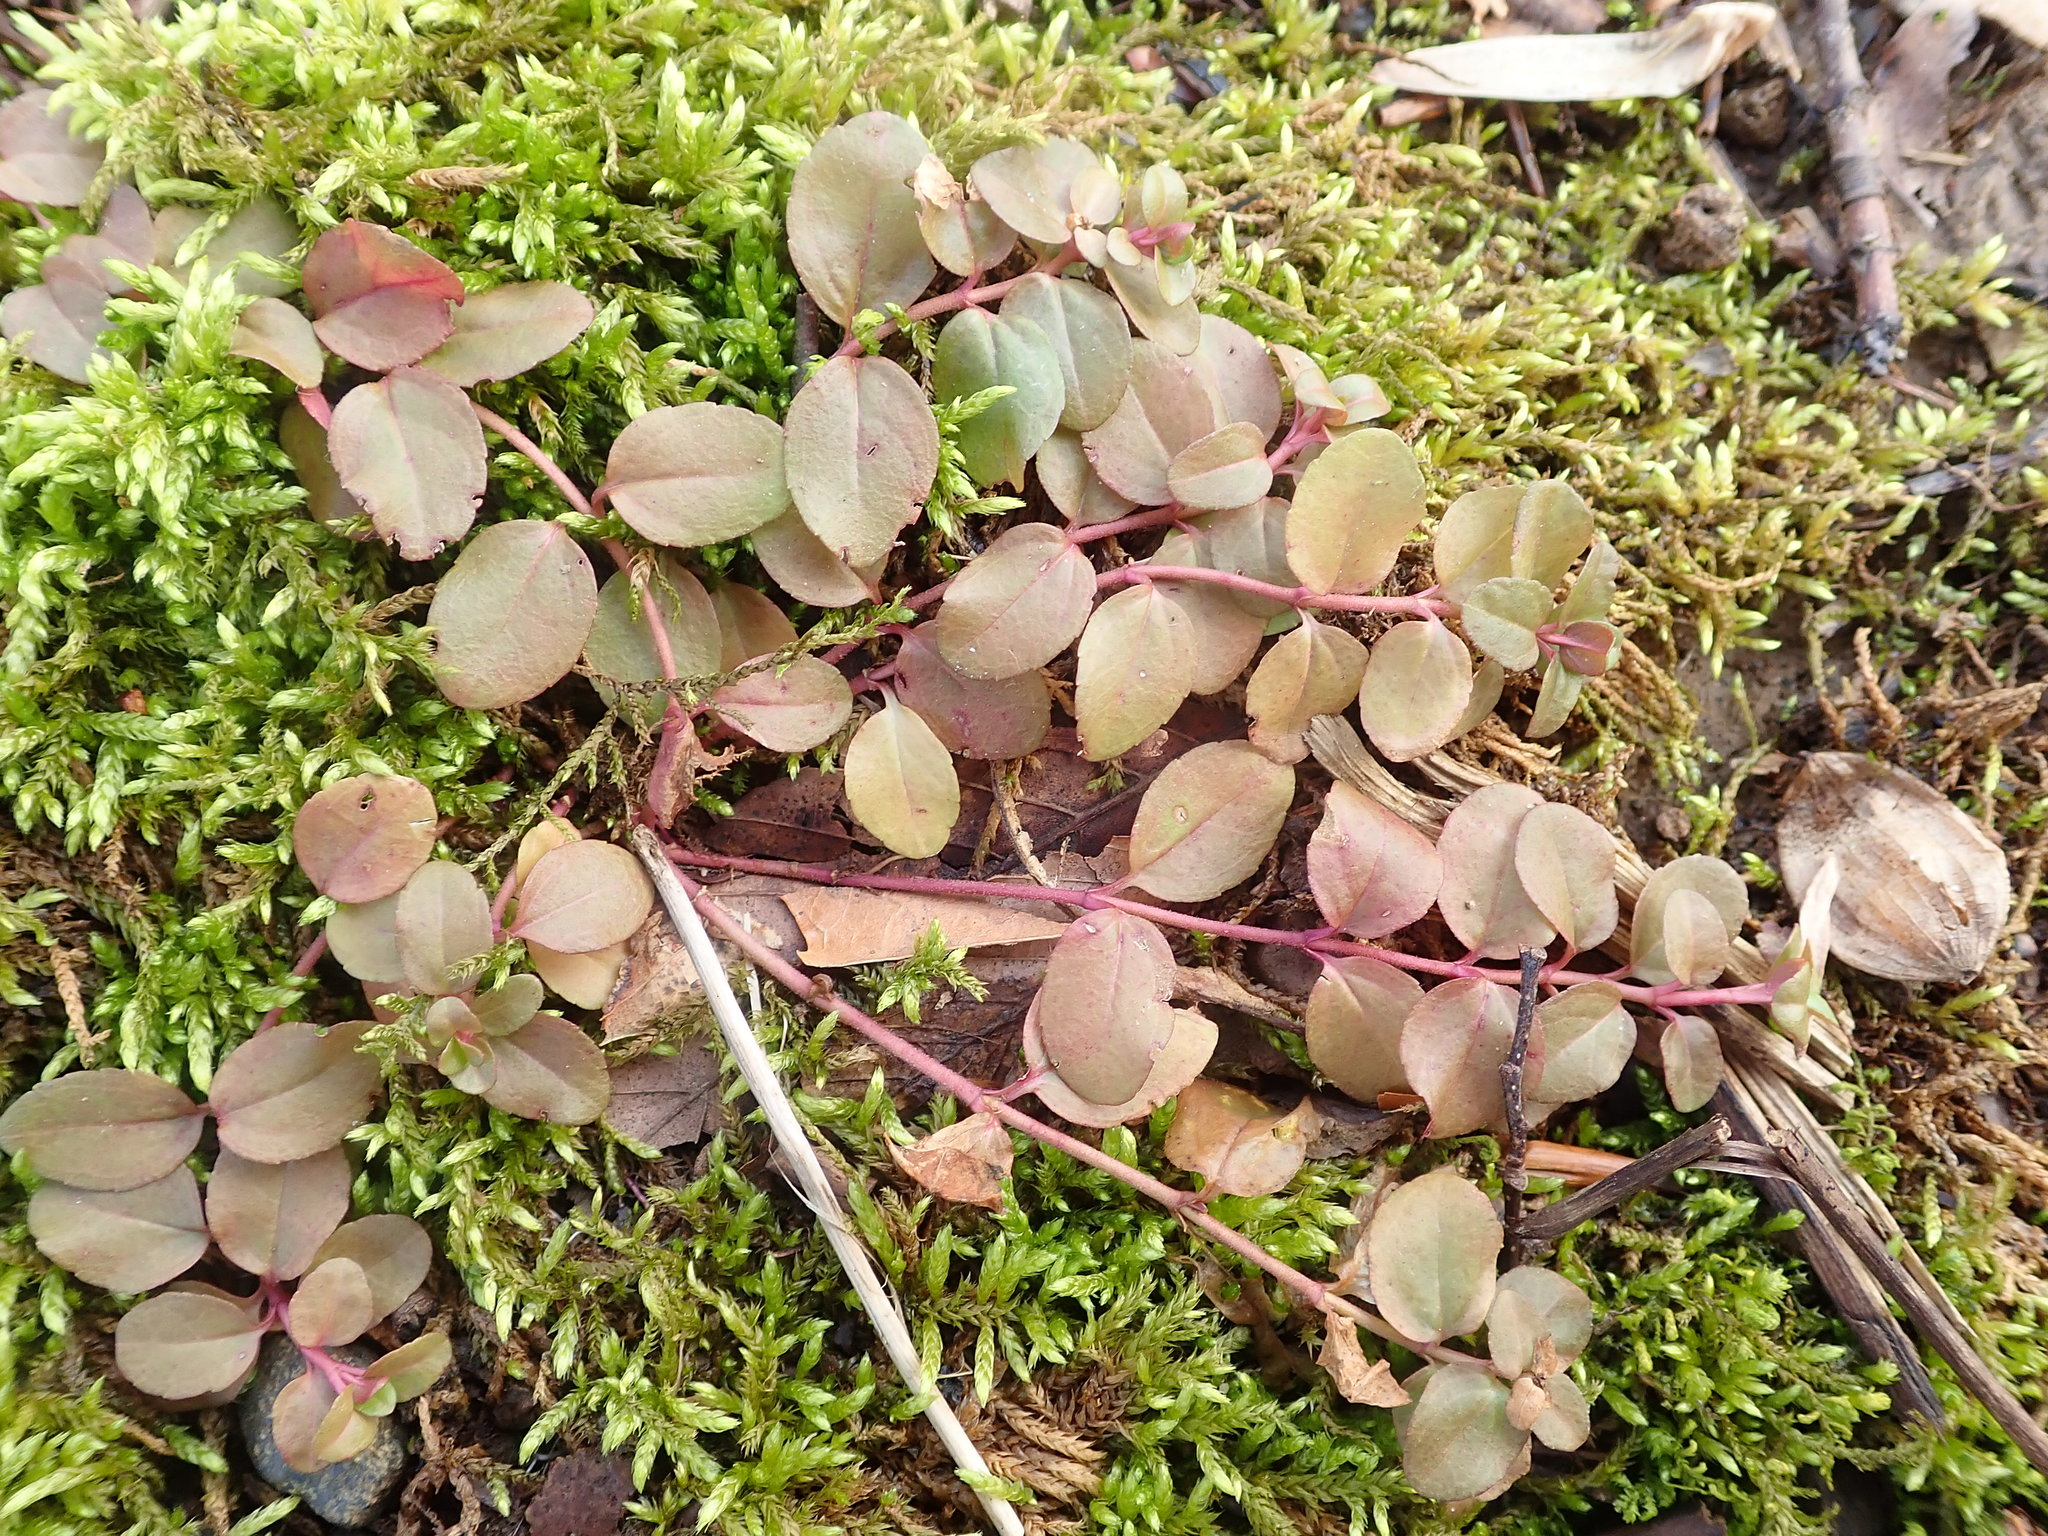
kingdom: Plantae
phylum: Tracheophyta
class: Magnoliopsida
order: Ericales
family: Primulaceae
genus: Lysimachia
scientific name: Lysimachia nummularia
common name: Moneywort
